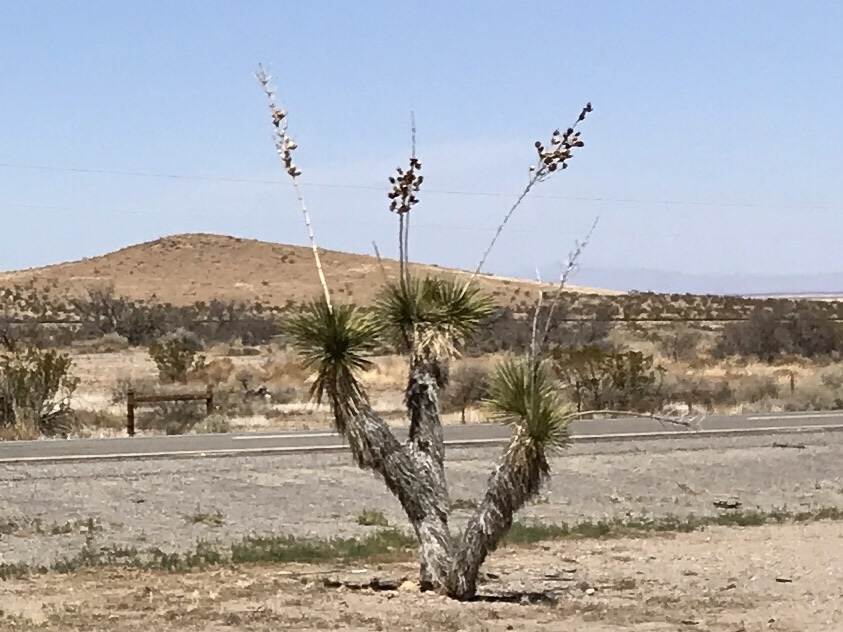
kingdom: Plantae
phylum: Tracheophyta
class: Liliopsida
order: Asparagales
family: Asparagaceae
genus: Yucca
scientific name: Yucca elata
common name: Palmella
